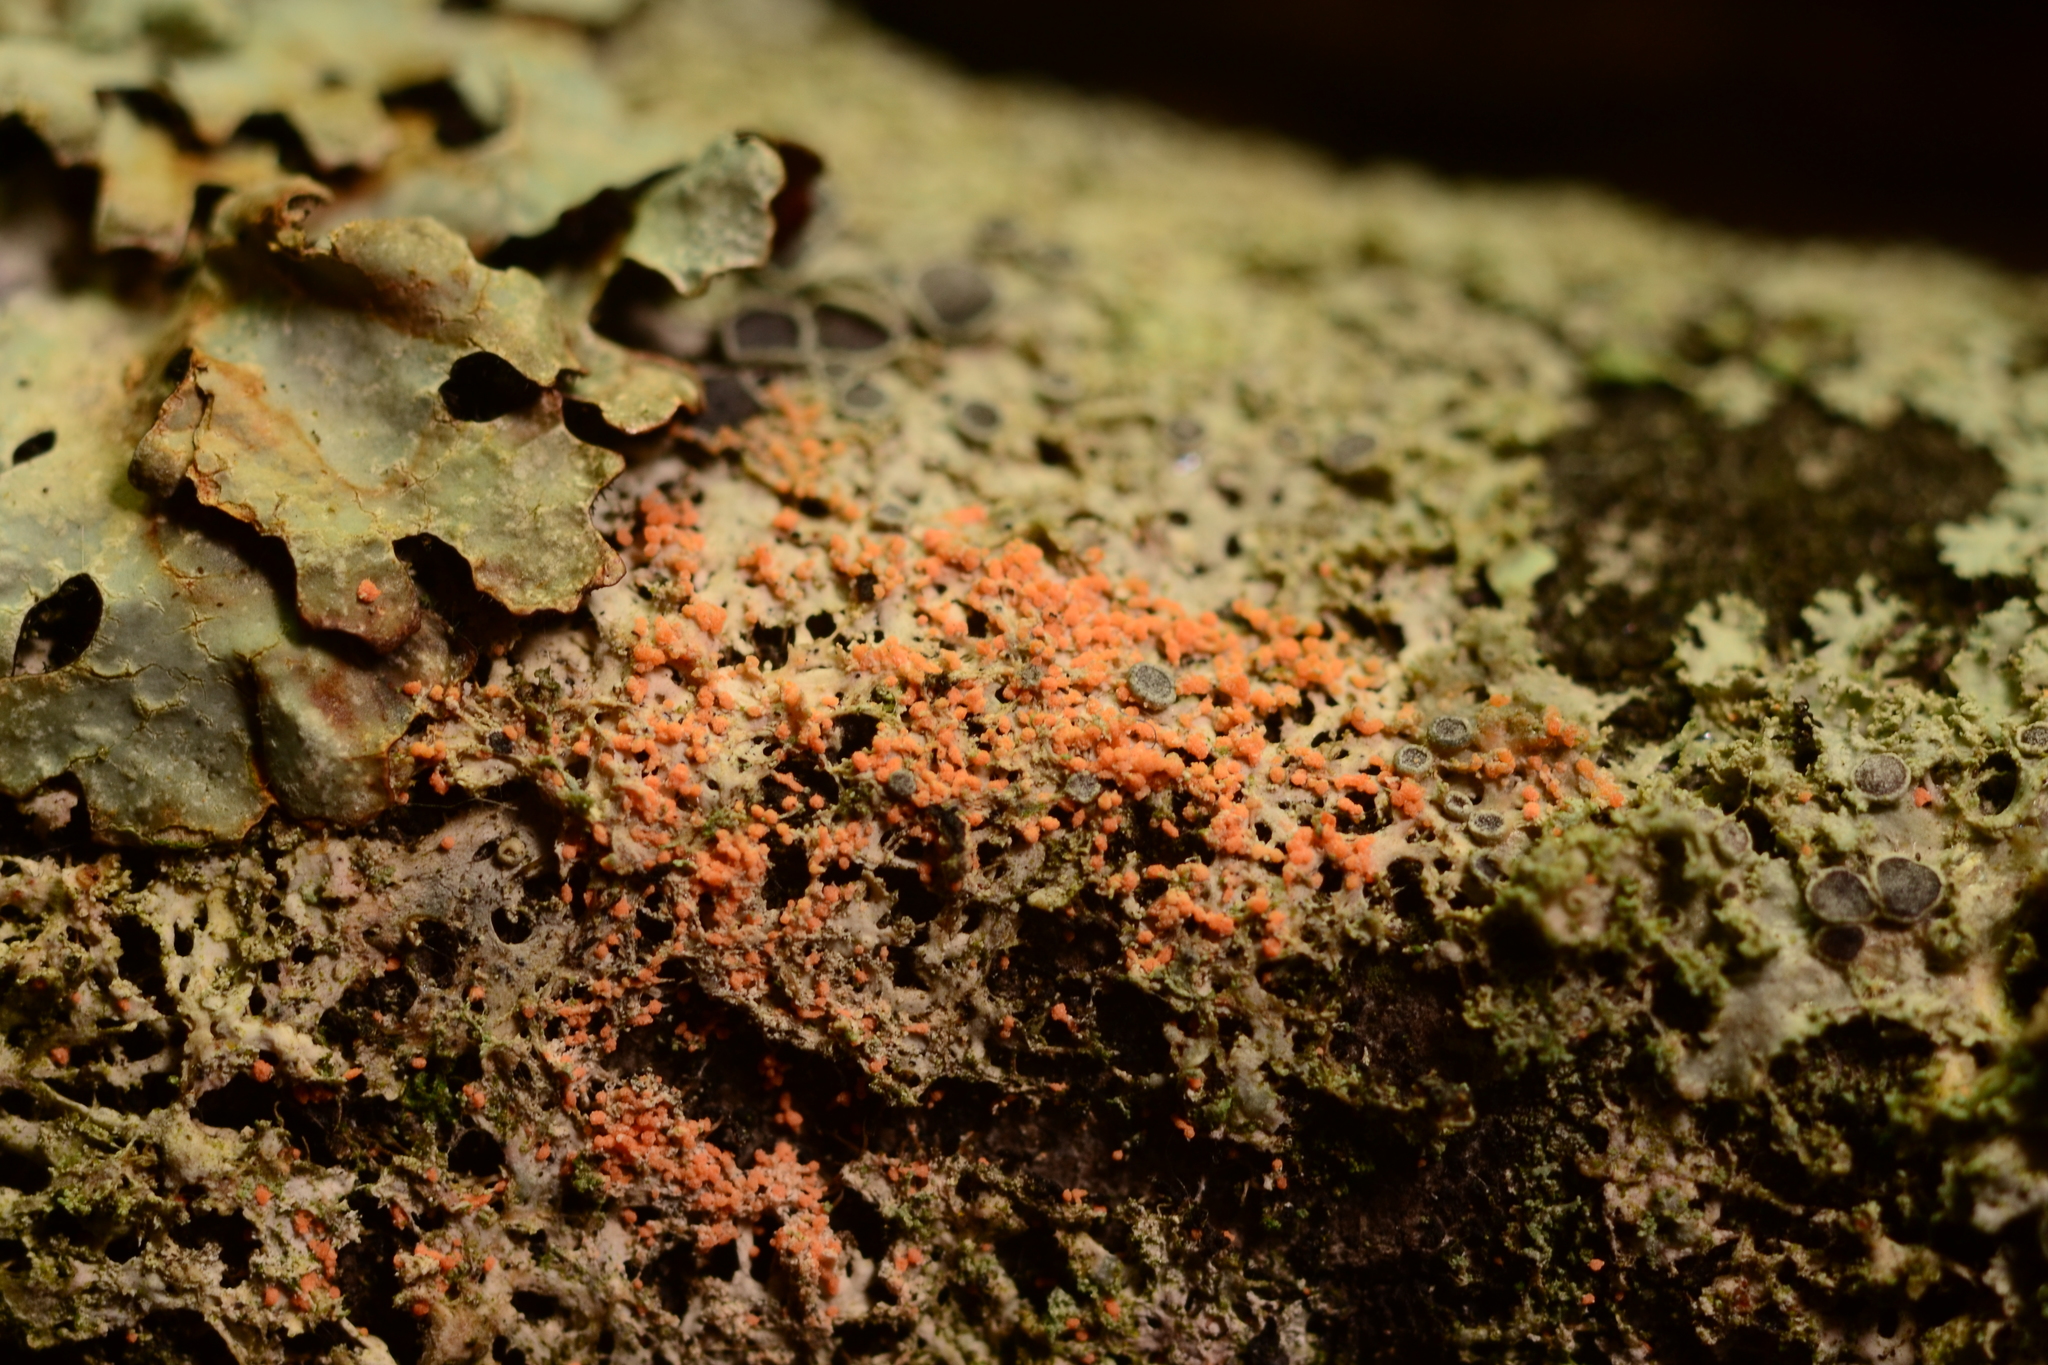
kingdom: Fungi
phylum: Basidiomycota
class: Agaricomycetes
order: Corticiales
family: Corticiaceae
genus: Erythricium
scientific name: Erythricium aurantiacum
